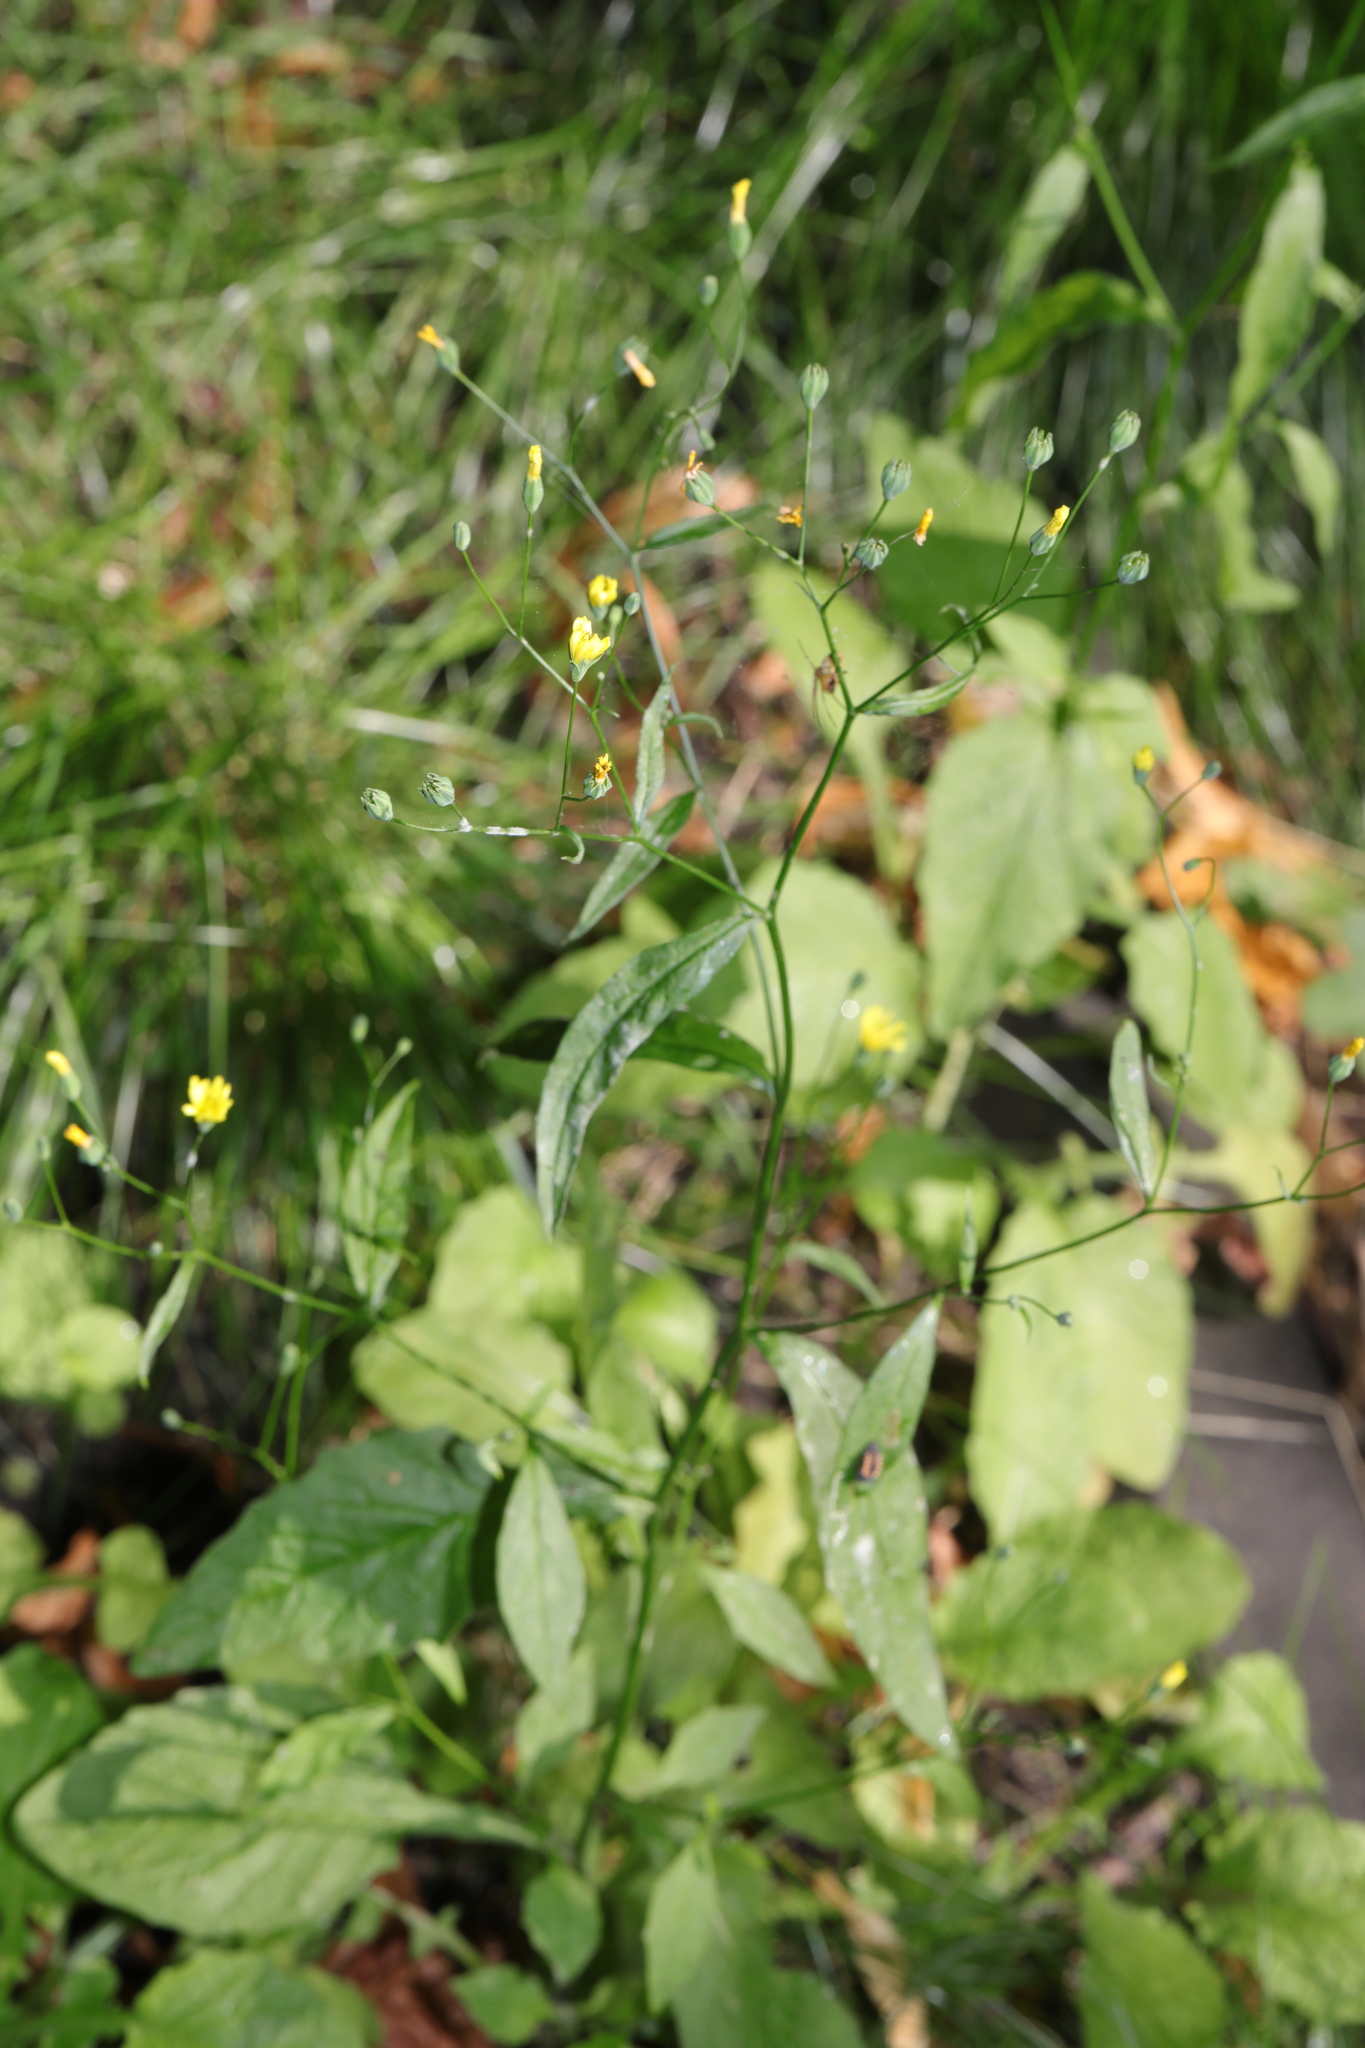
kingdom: Plantae
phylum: Tracheophyta
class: Magnoliopsida
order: Asterales
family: Asteraceae
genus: Lapsana
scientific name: Lapsana communis
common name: Nipplewort
